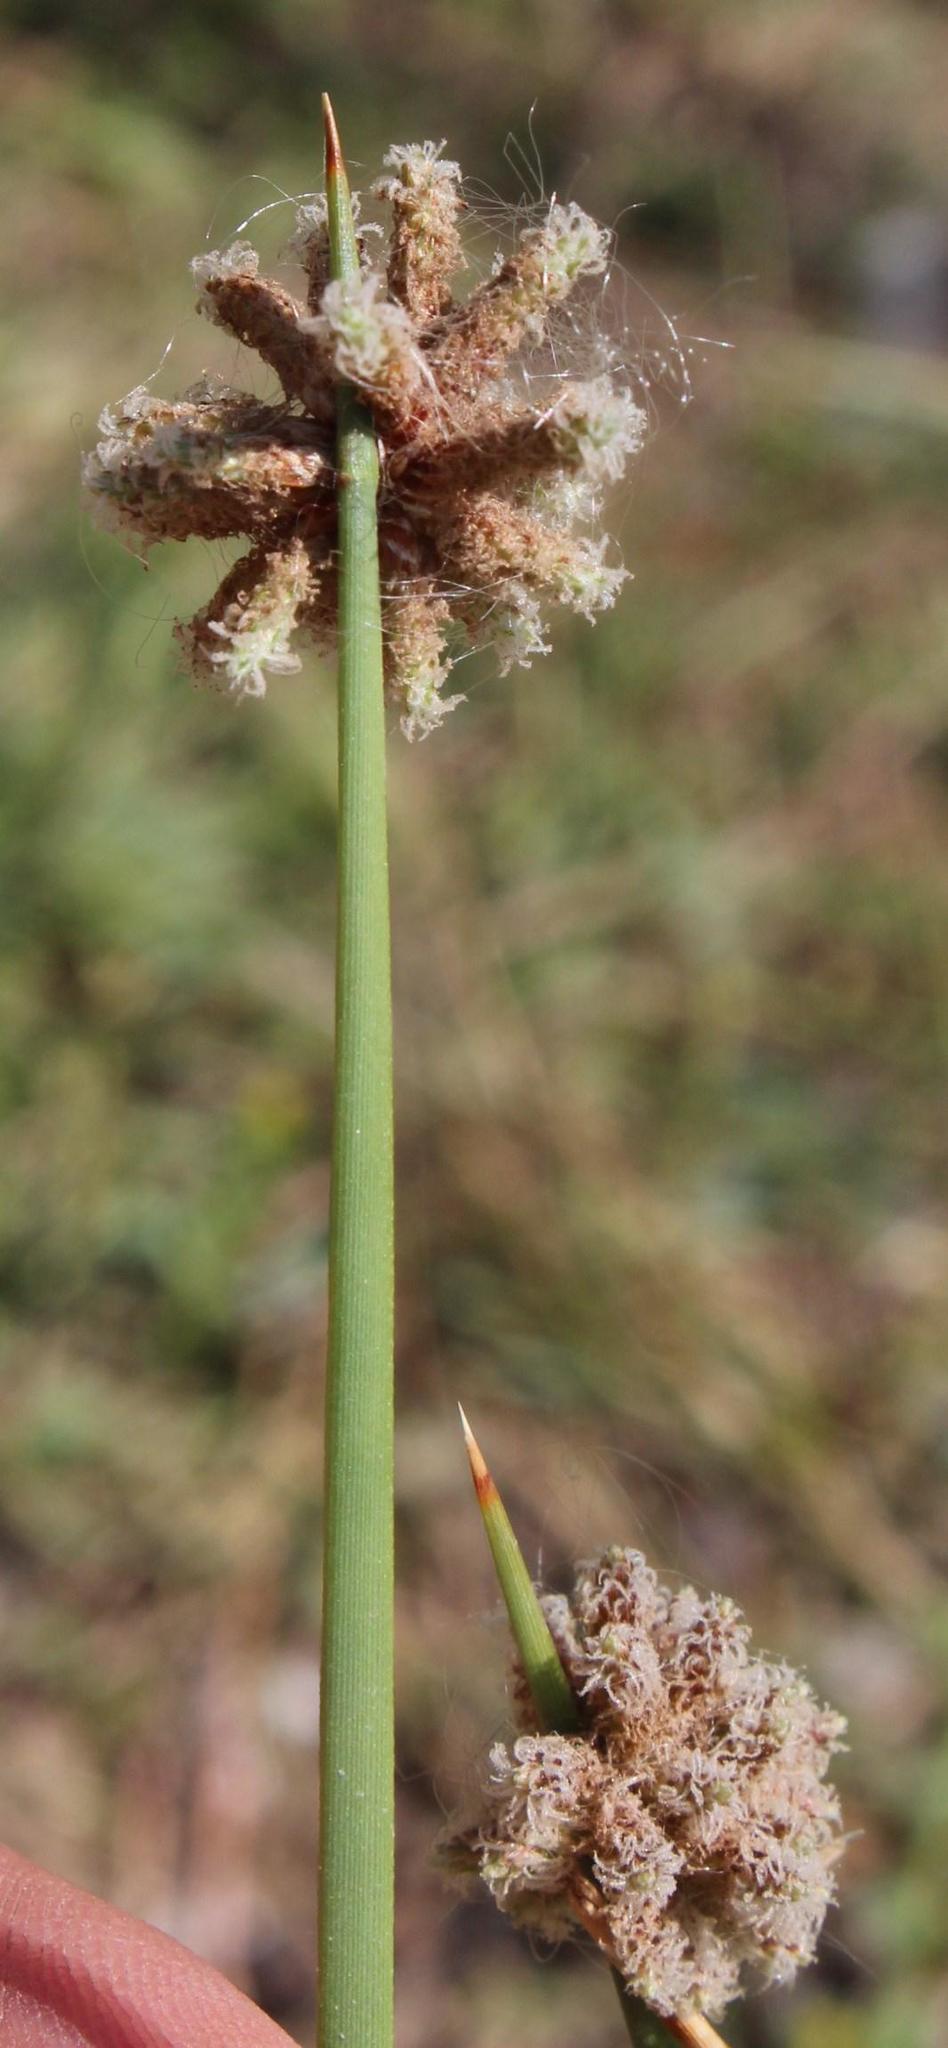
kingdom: Plantae
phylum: Tracheophyta
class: Liliopsida
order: Poales
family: Cyperaceae
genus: Afroscirpoides
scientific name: Afroscirpoides dioeca
